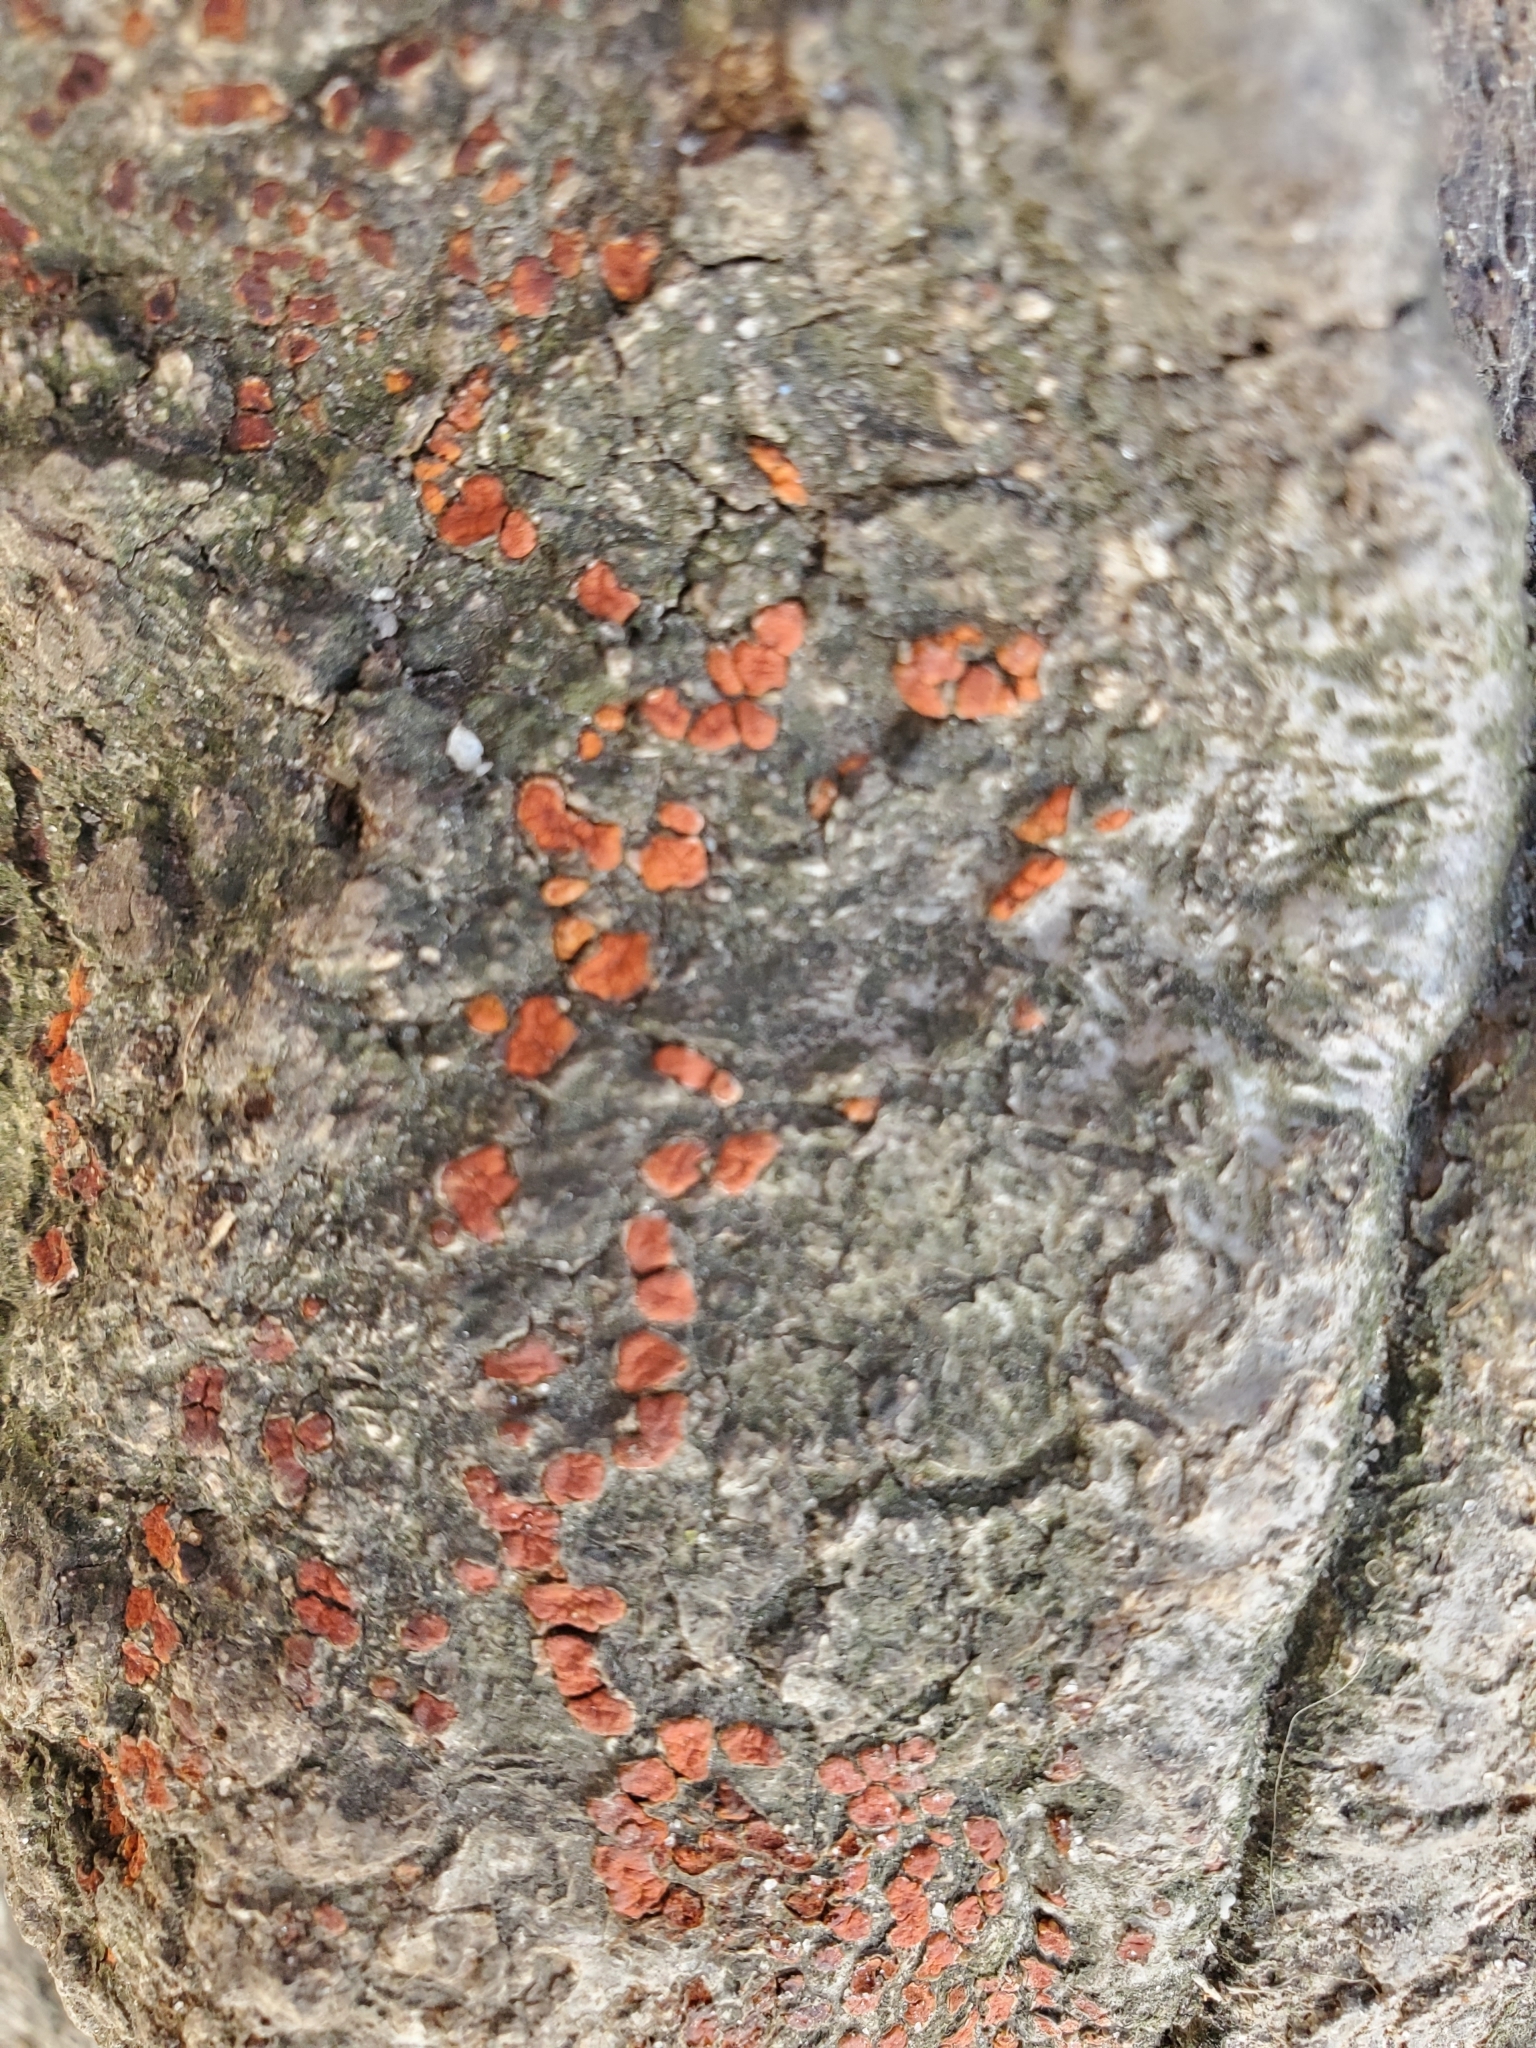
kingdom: Fungi
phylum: Ascomycota
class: Sordariomycetes
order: Diaporthales
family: Cryphonectriaceae
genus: Amphilogia
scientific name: Amphilogia gyrosa
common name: Orange hobnail canker
